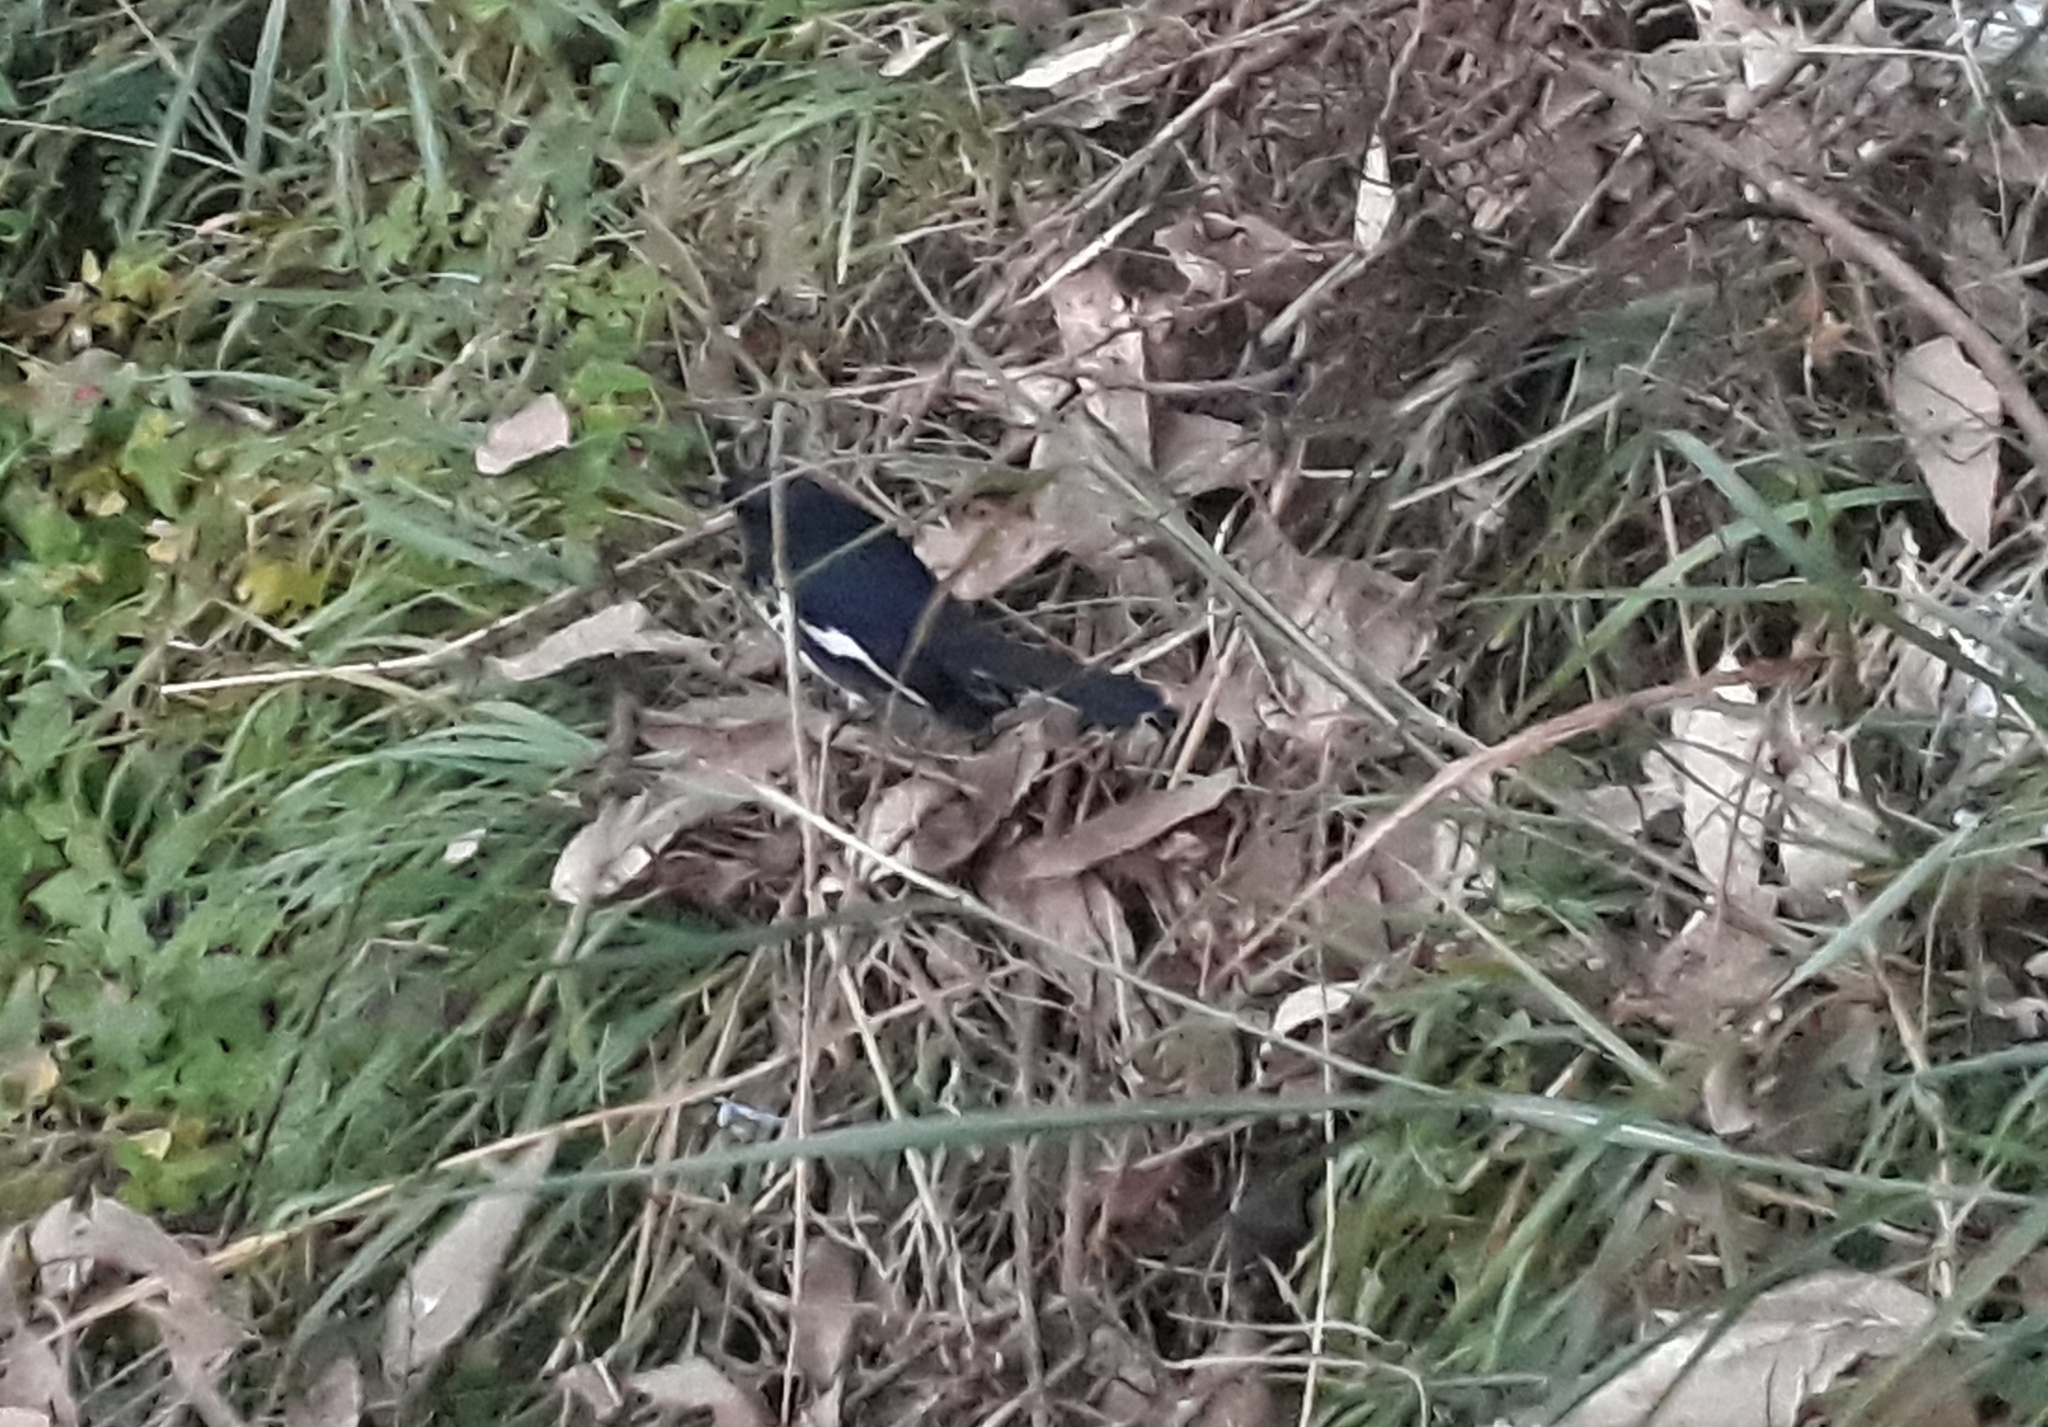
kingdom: Animalia
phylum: Chordata
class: Aves
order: Passeriformes
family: Muscicapidae
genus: Copsychus
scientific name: Copsychus saularis
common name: Oriental magpie-robin
